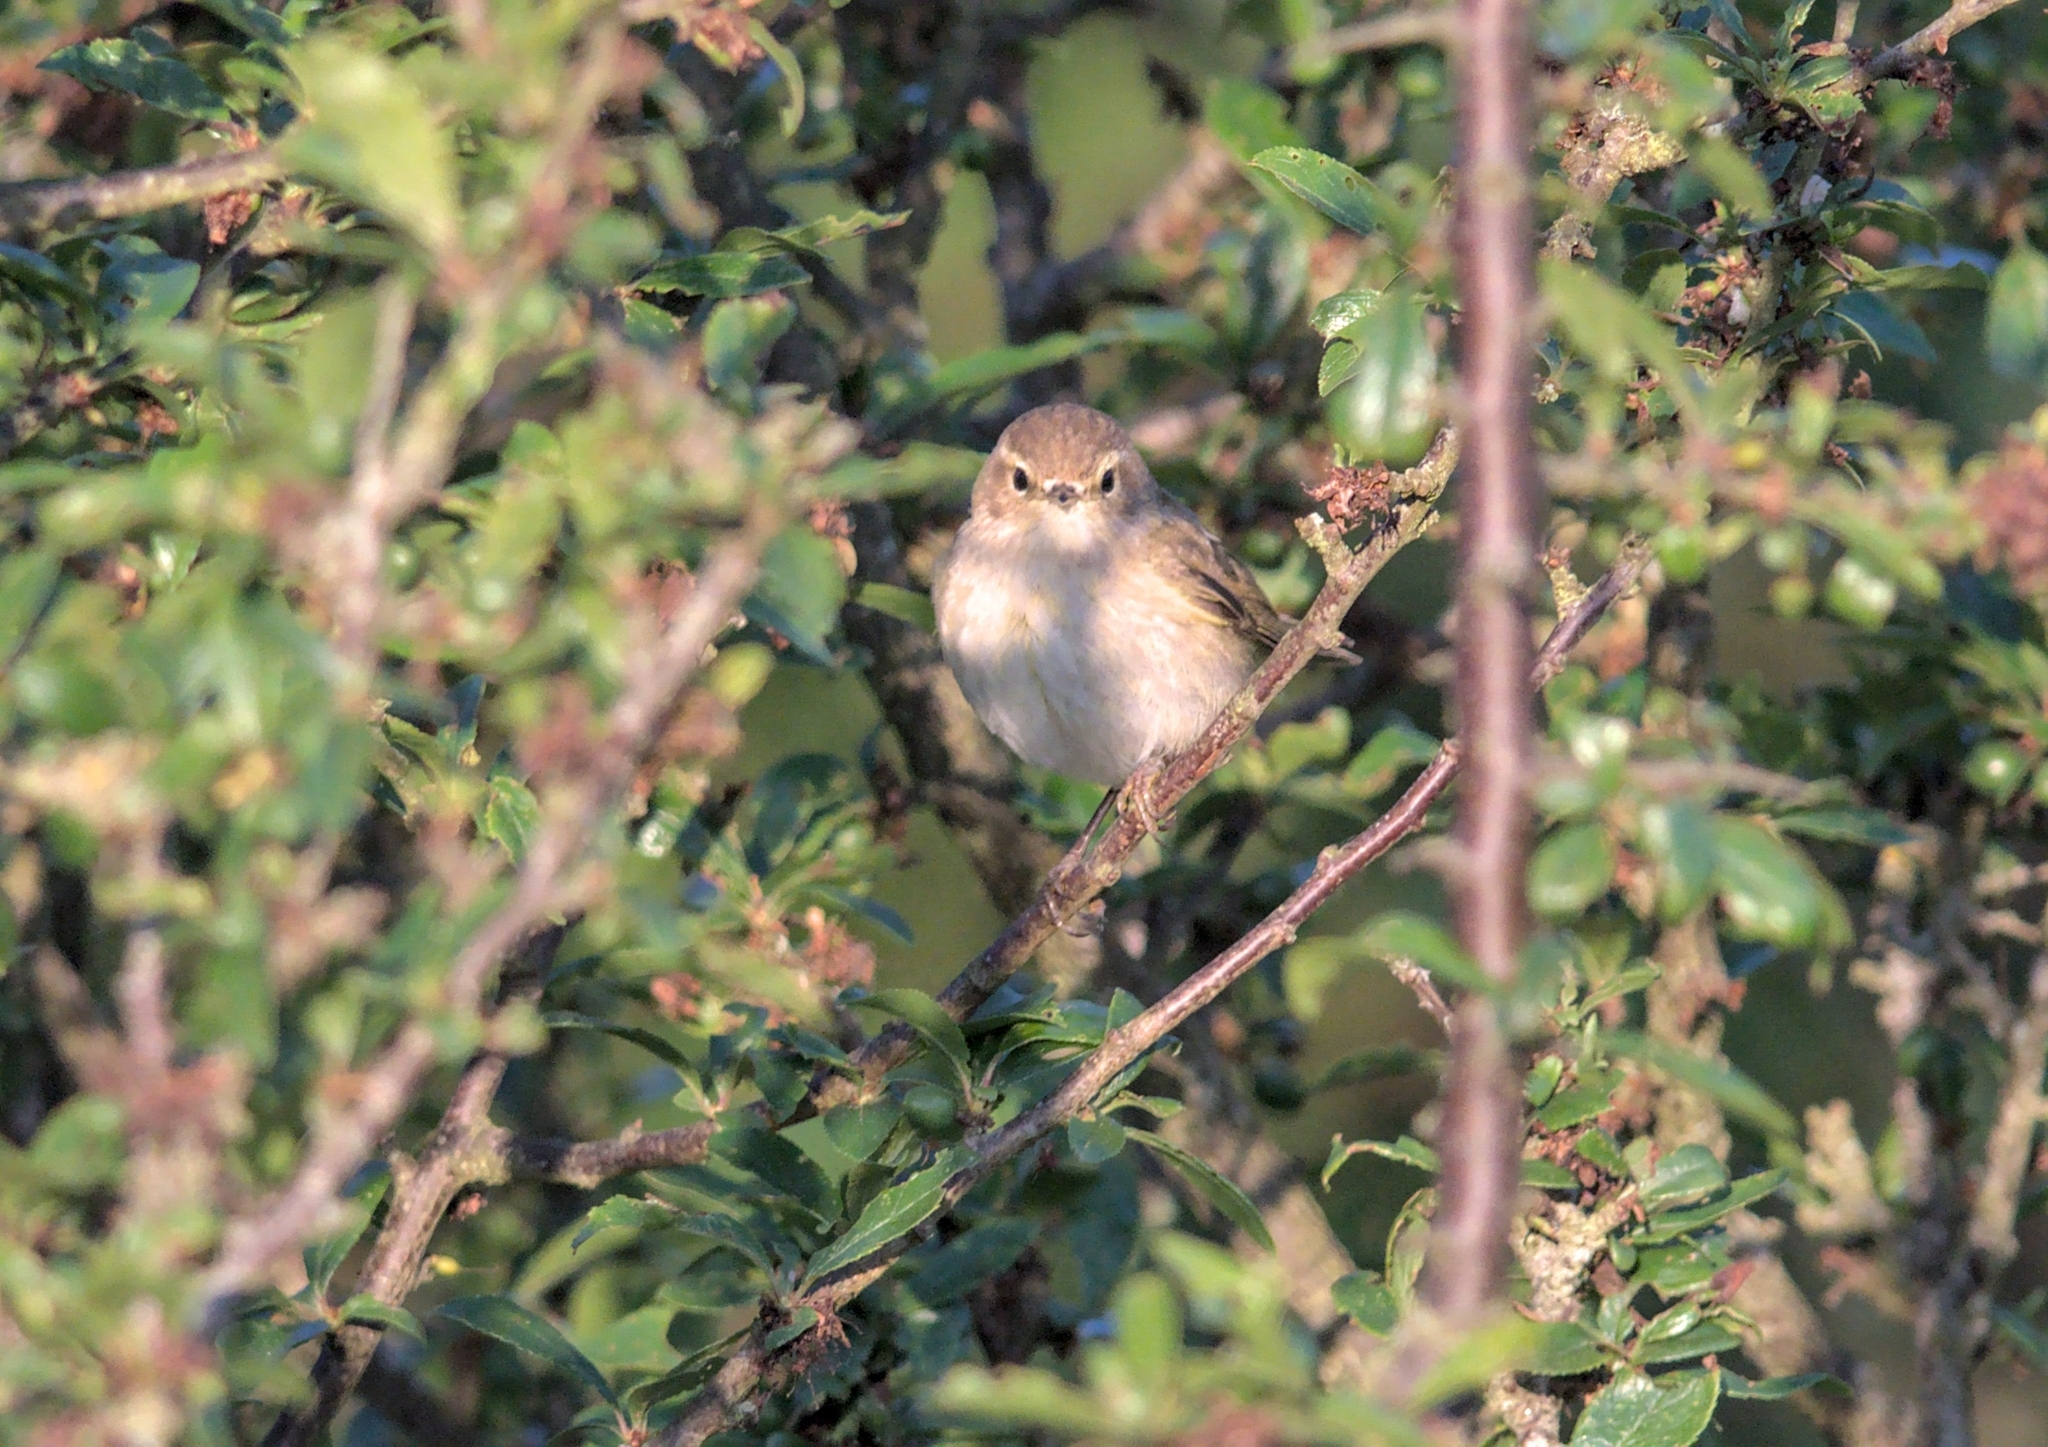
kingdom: Animalia
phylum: Chordata
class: Aves
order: Passeriformes
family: Phylloscopidae
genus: Phylloscopus
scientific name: Phylloscopus collybita
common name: Common chiffchaff
